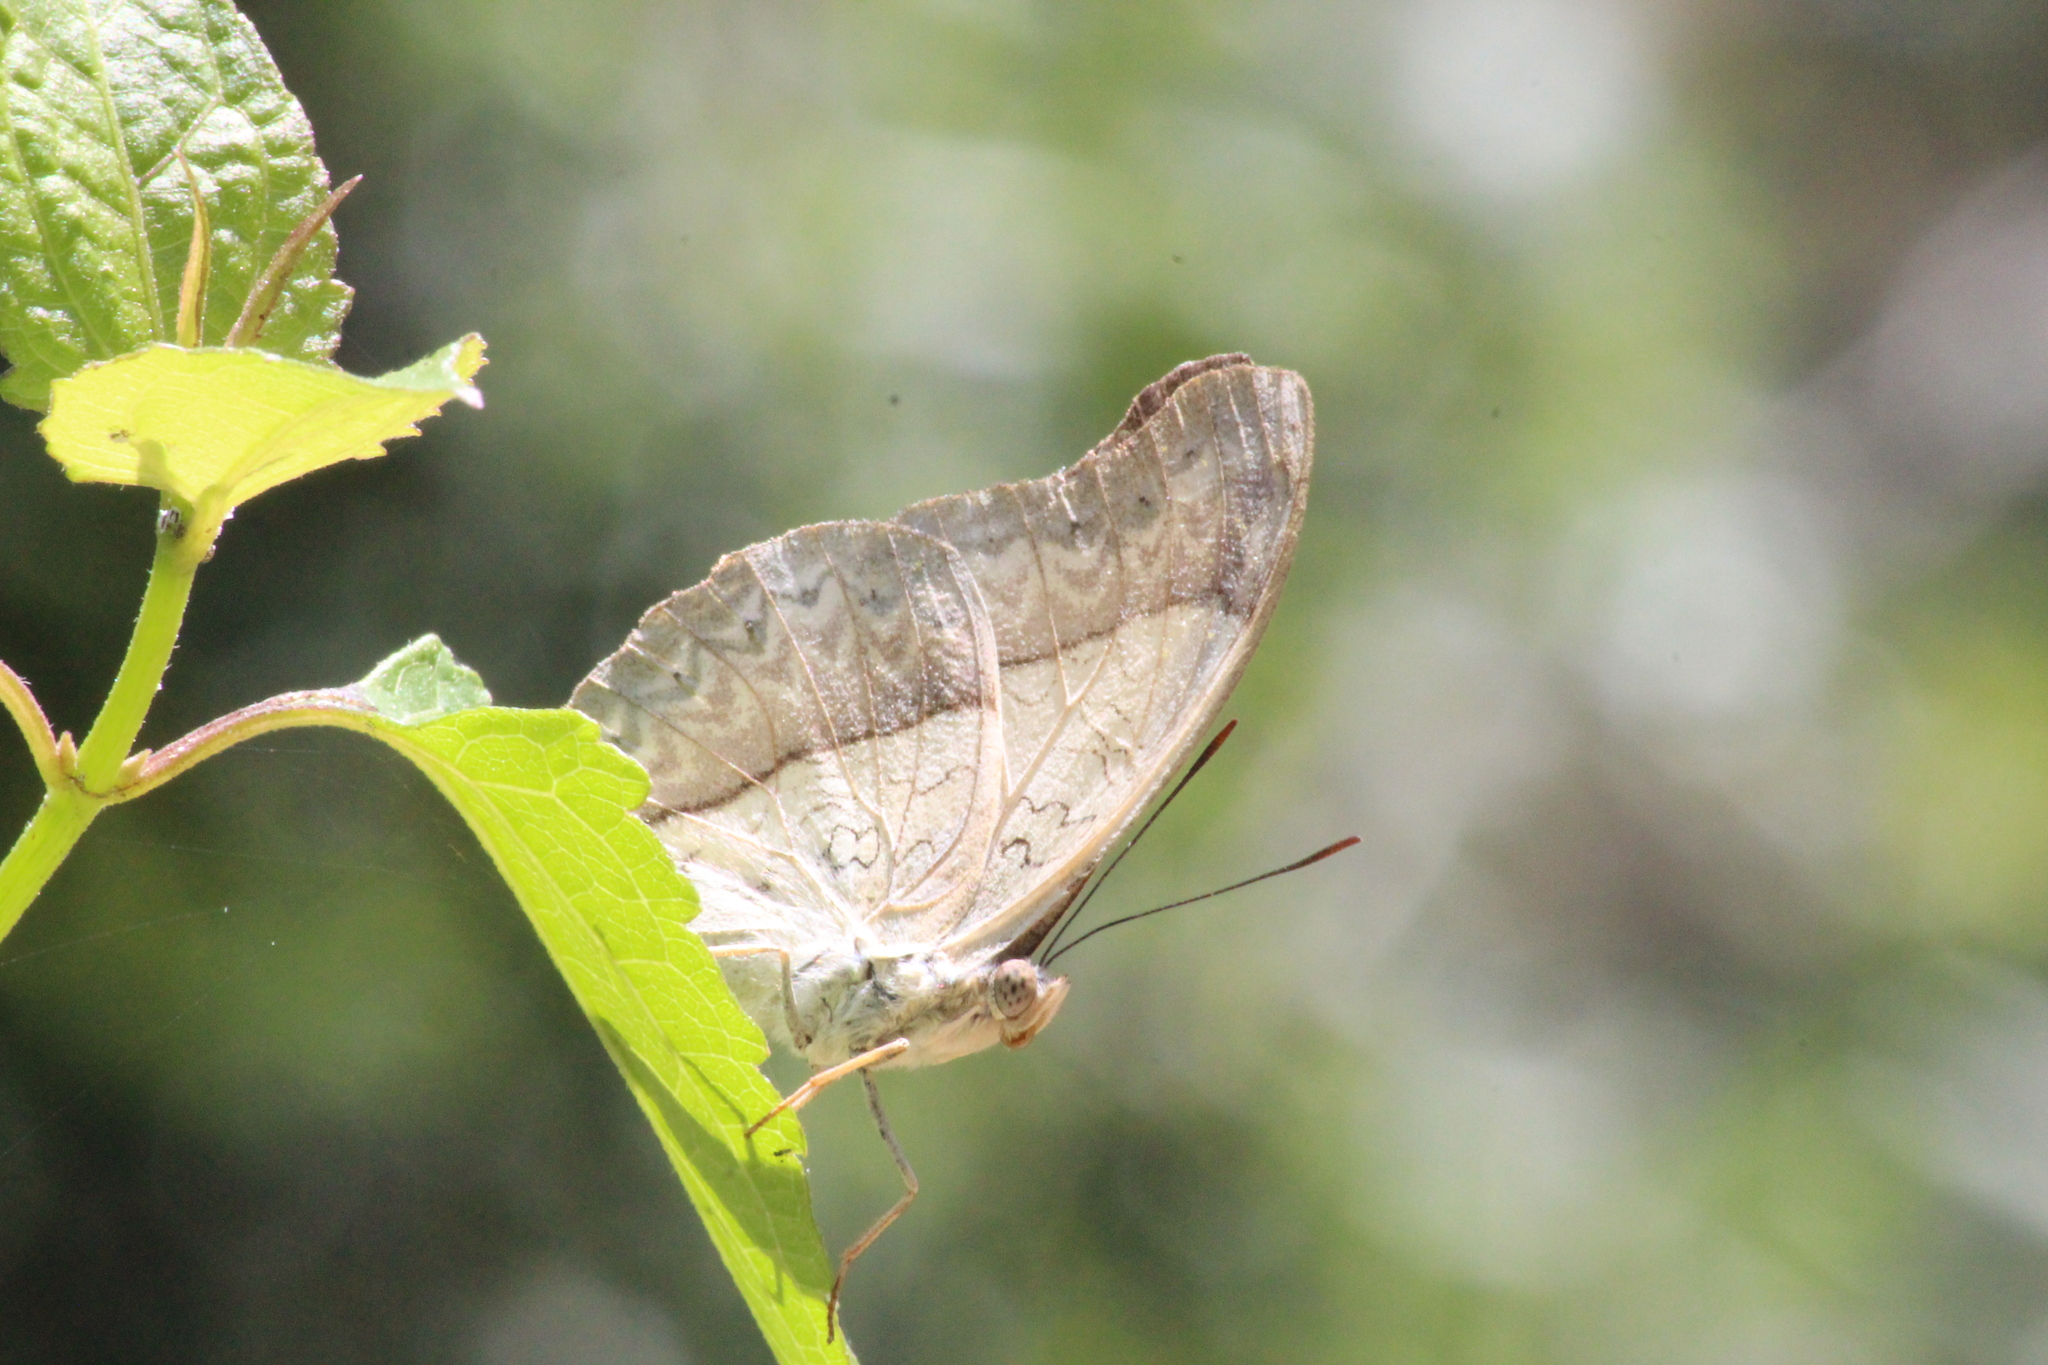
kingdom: Animalia
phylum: Arthropoda
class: Insecta
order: Lepidoptera
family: Nymphalidae
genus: Cymothoe
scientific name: Cymothoe coranus
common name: Blonde glider
